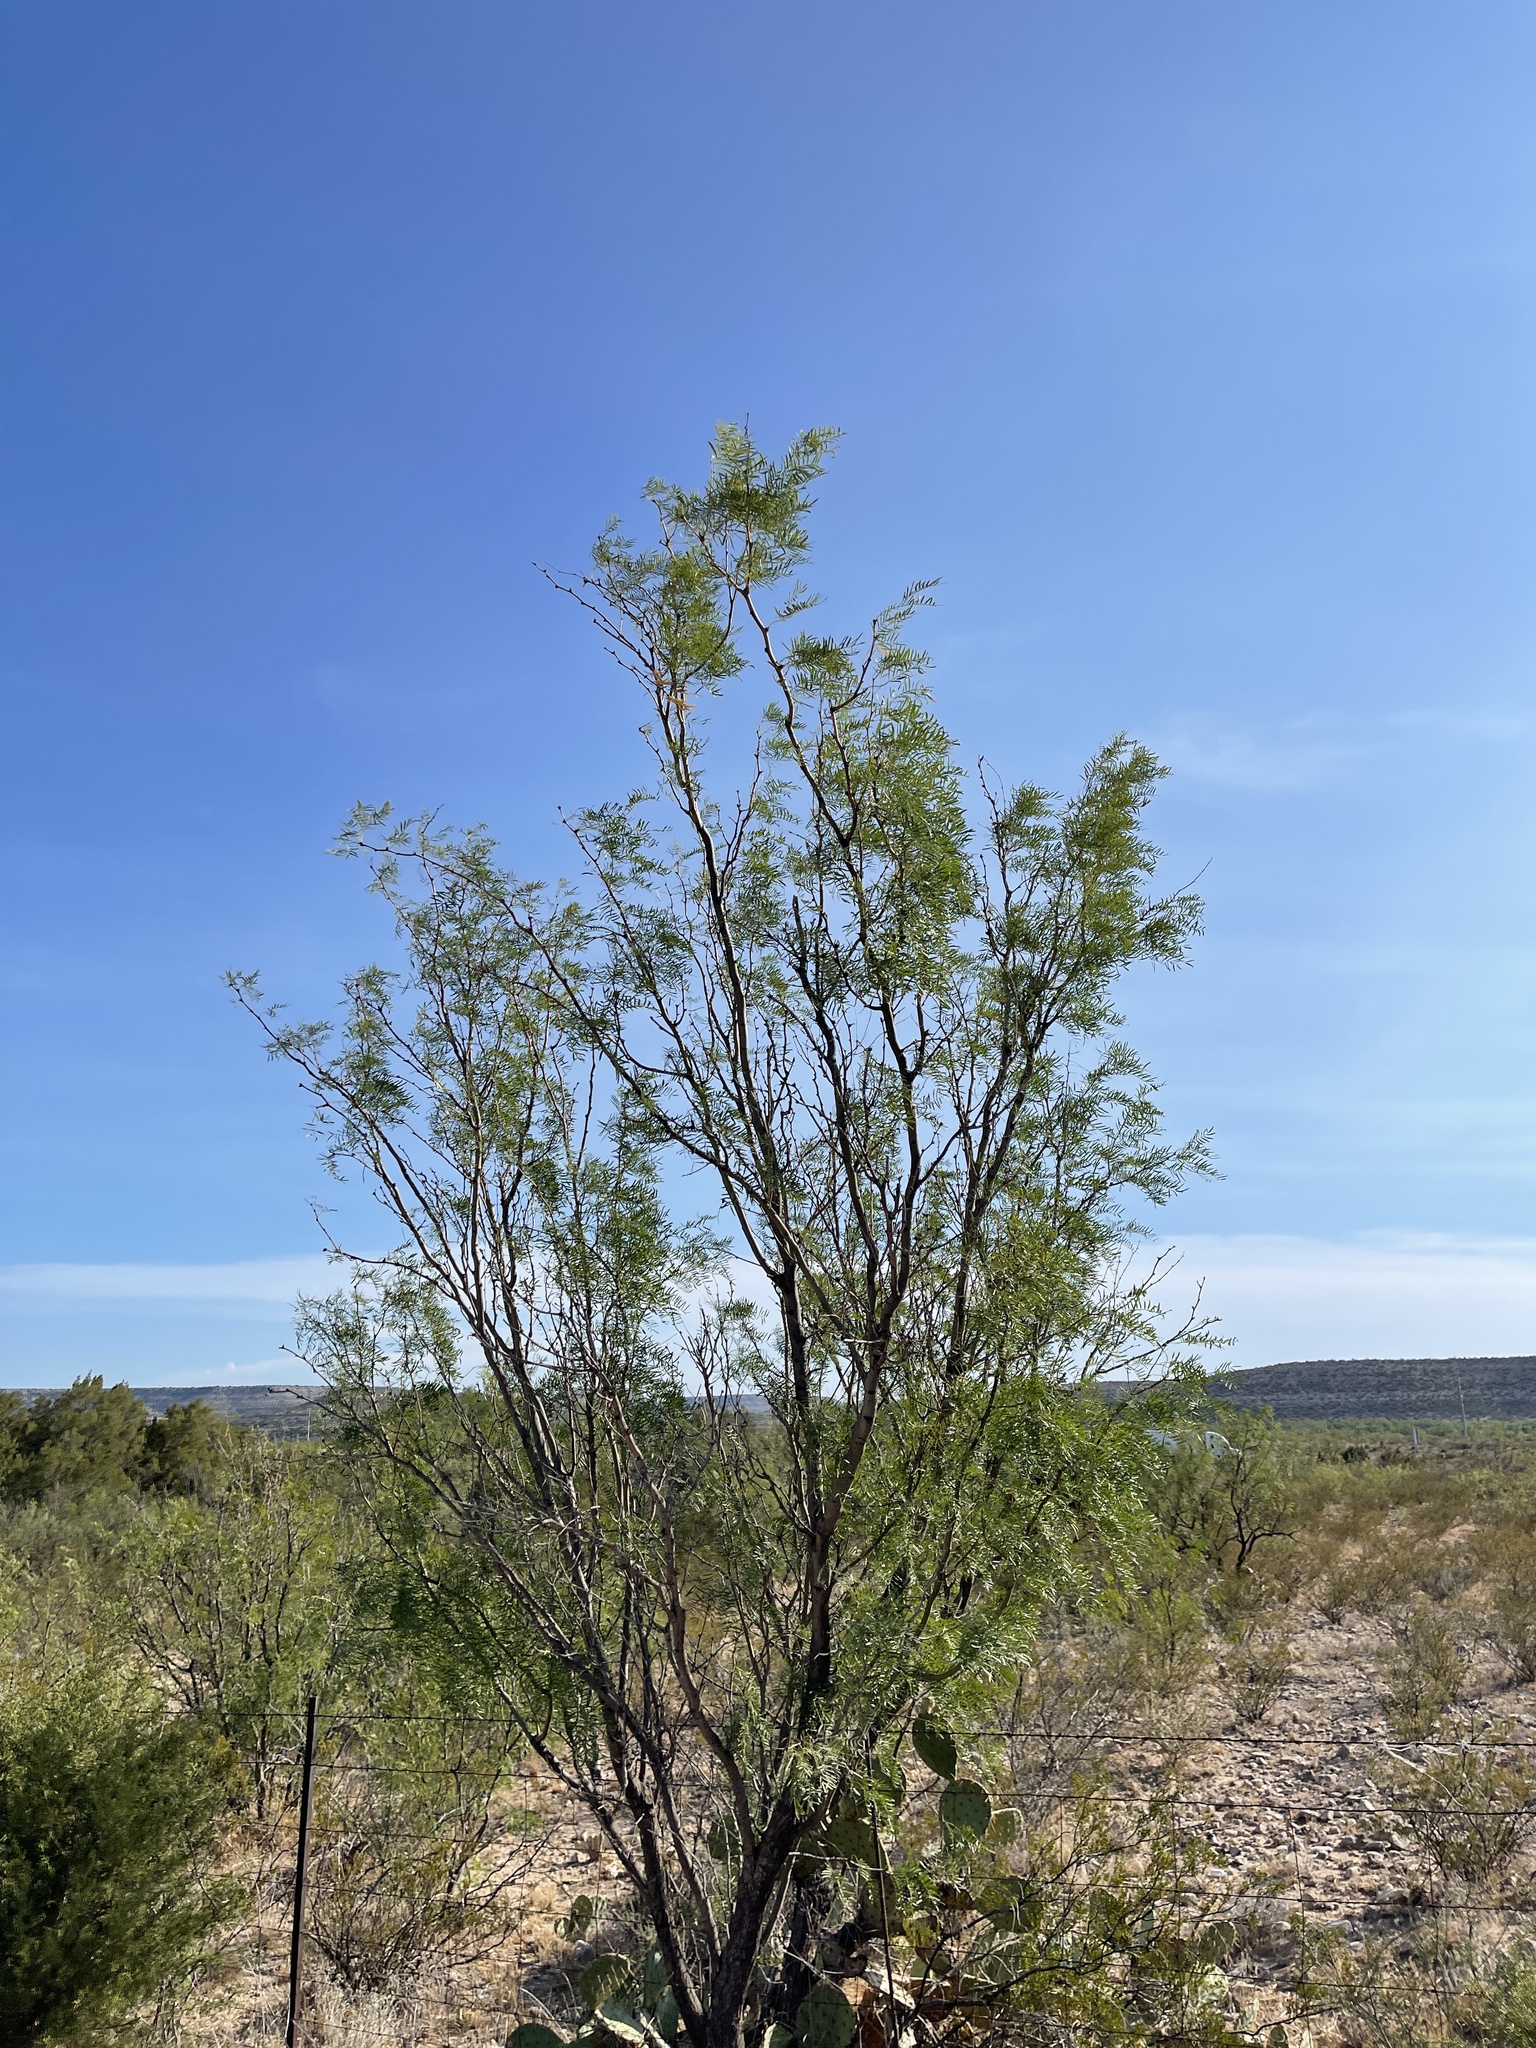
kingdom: Plantae
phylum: Tracheophyta
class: Magnoliopsida
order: Fabales
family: Fabaceae
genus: Prosopis
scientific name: Prosopis glandulosa
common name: Honey mesquite
